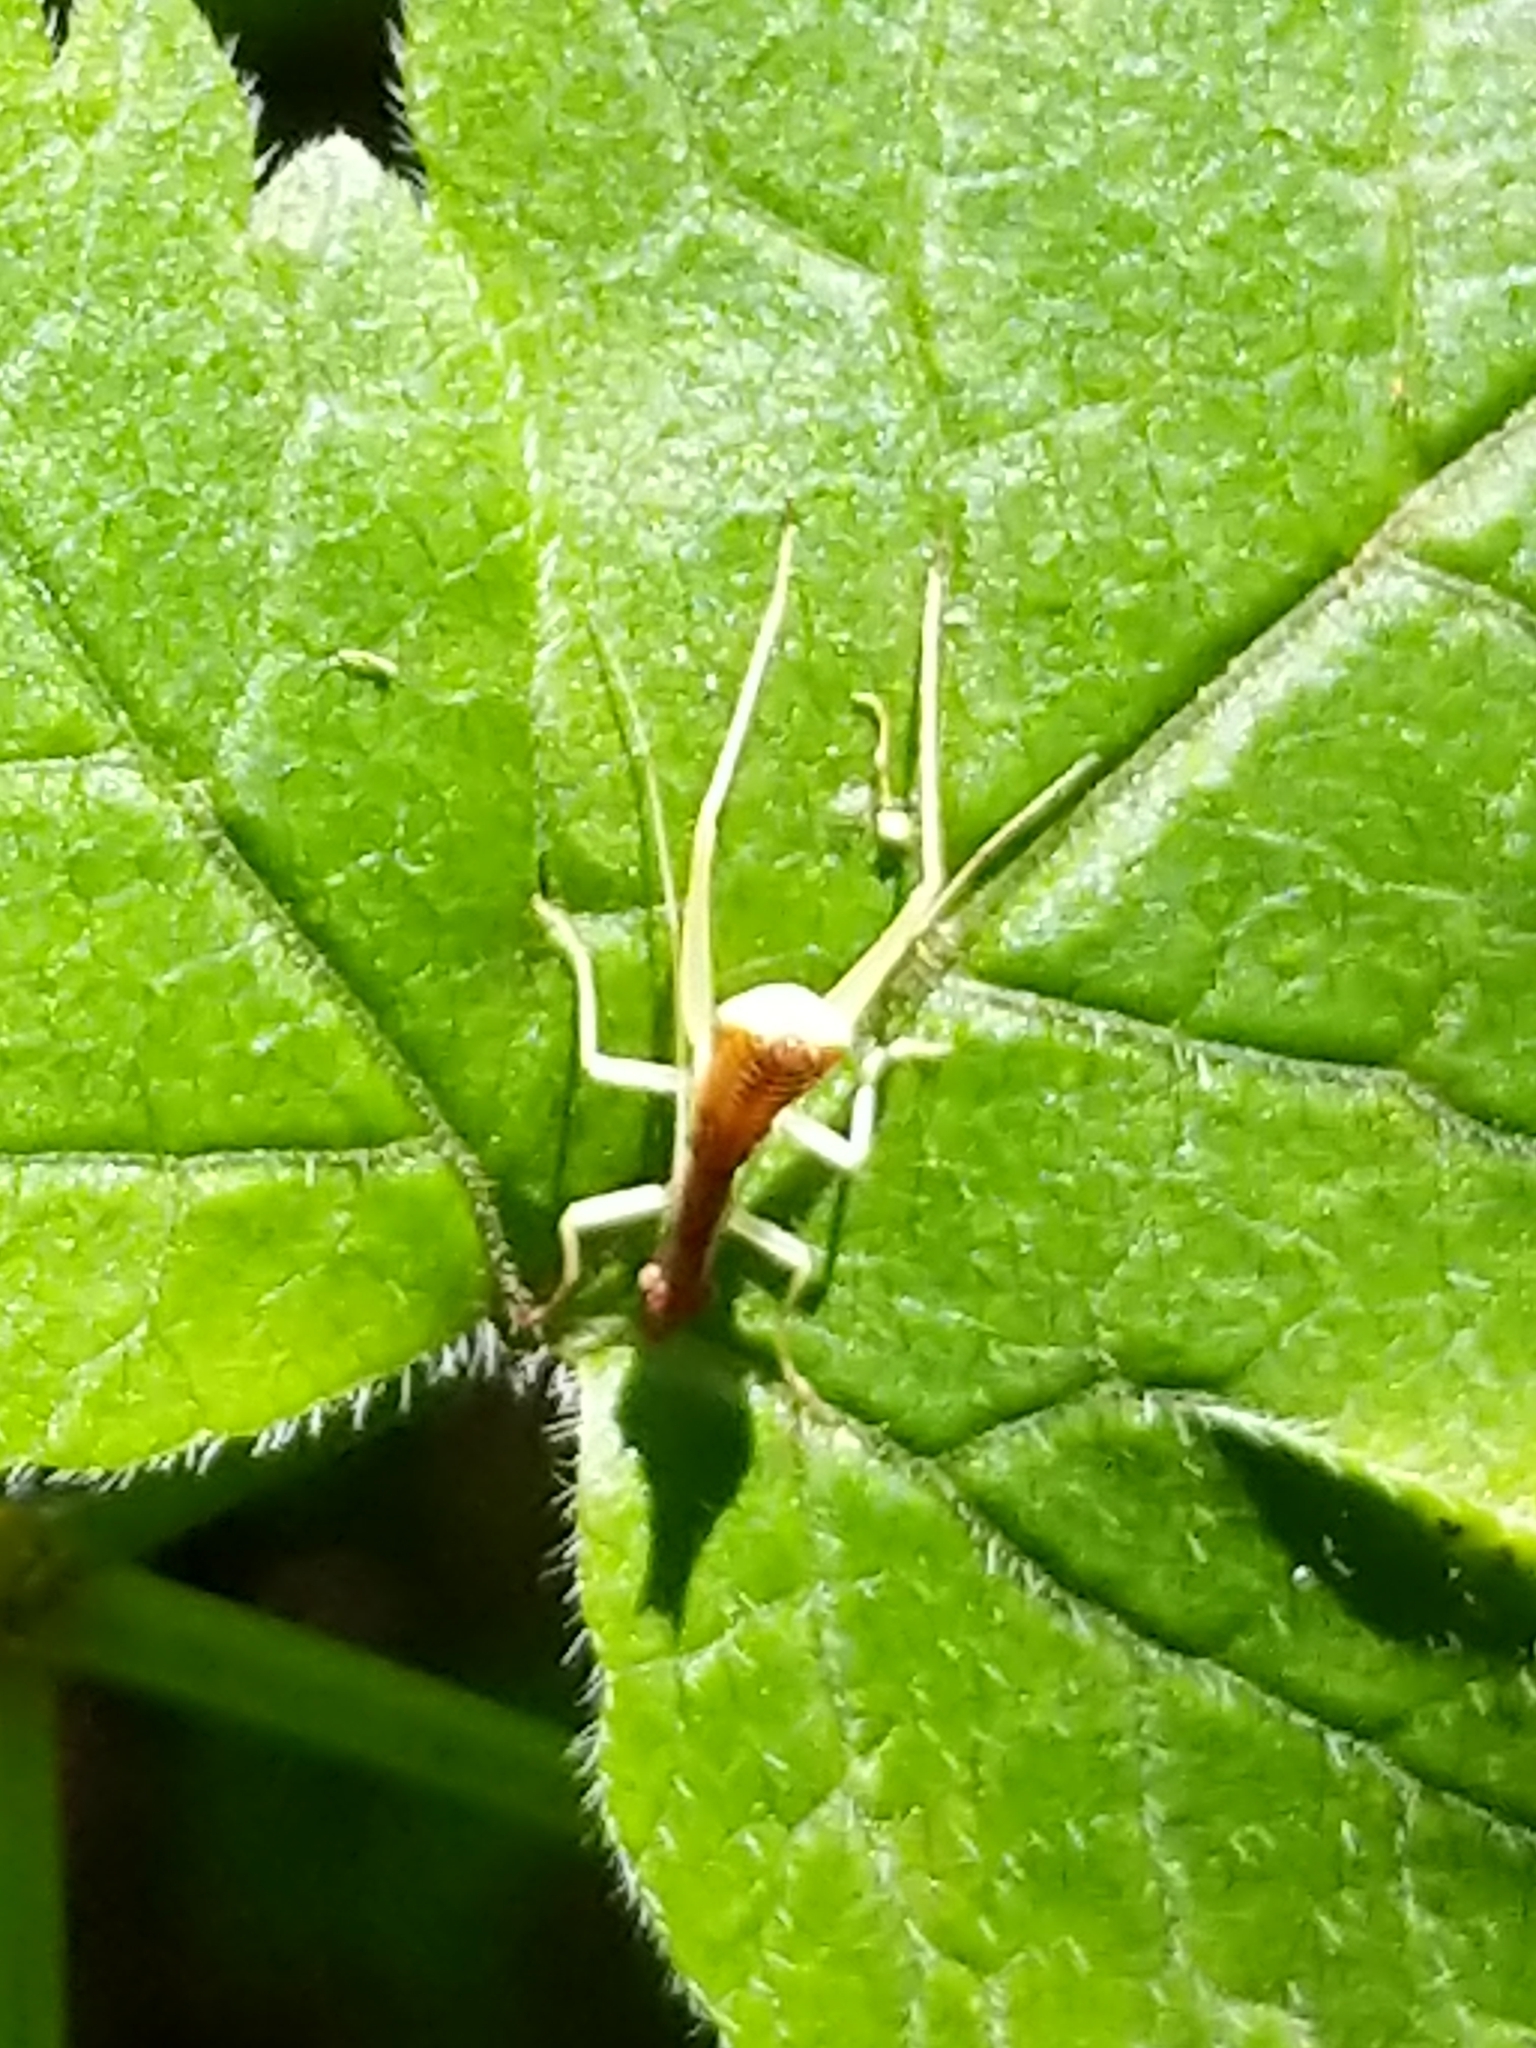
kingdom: Animalia
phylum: Arthropoda
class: Insecta
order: Orthoptera
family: Gryllidae
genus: Neoxabea
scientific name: Neoxabea bipunctata
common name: Two-spotted tree cricket
